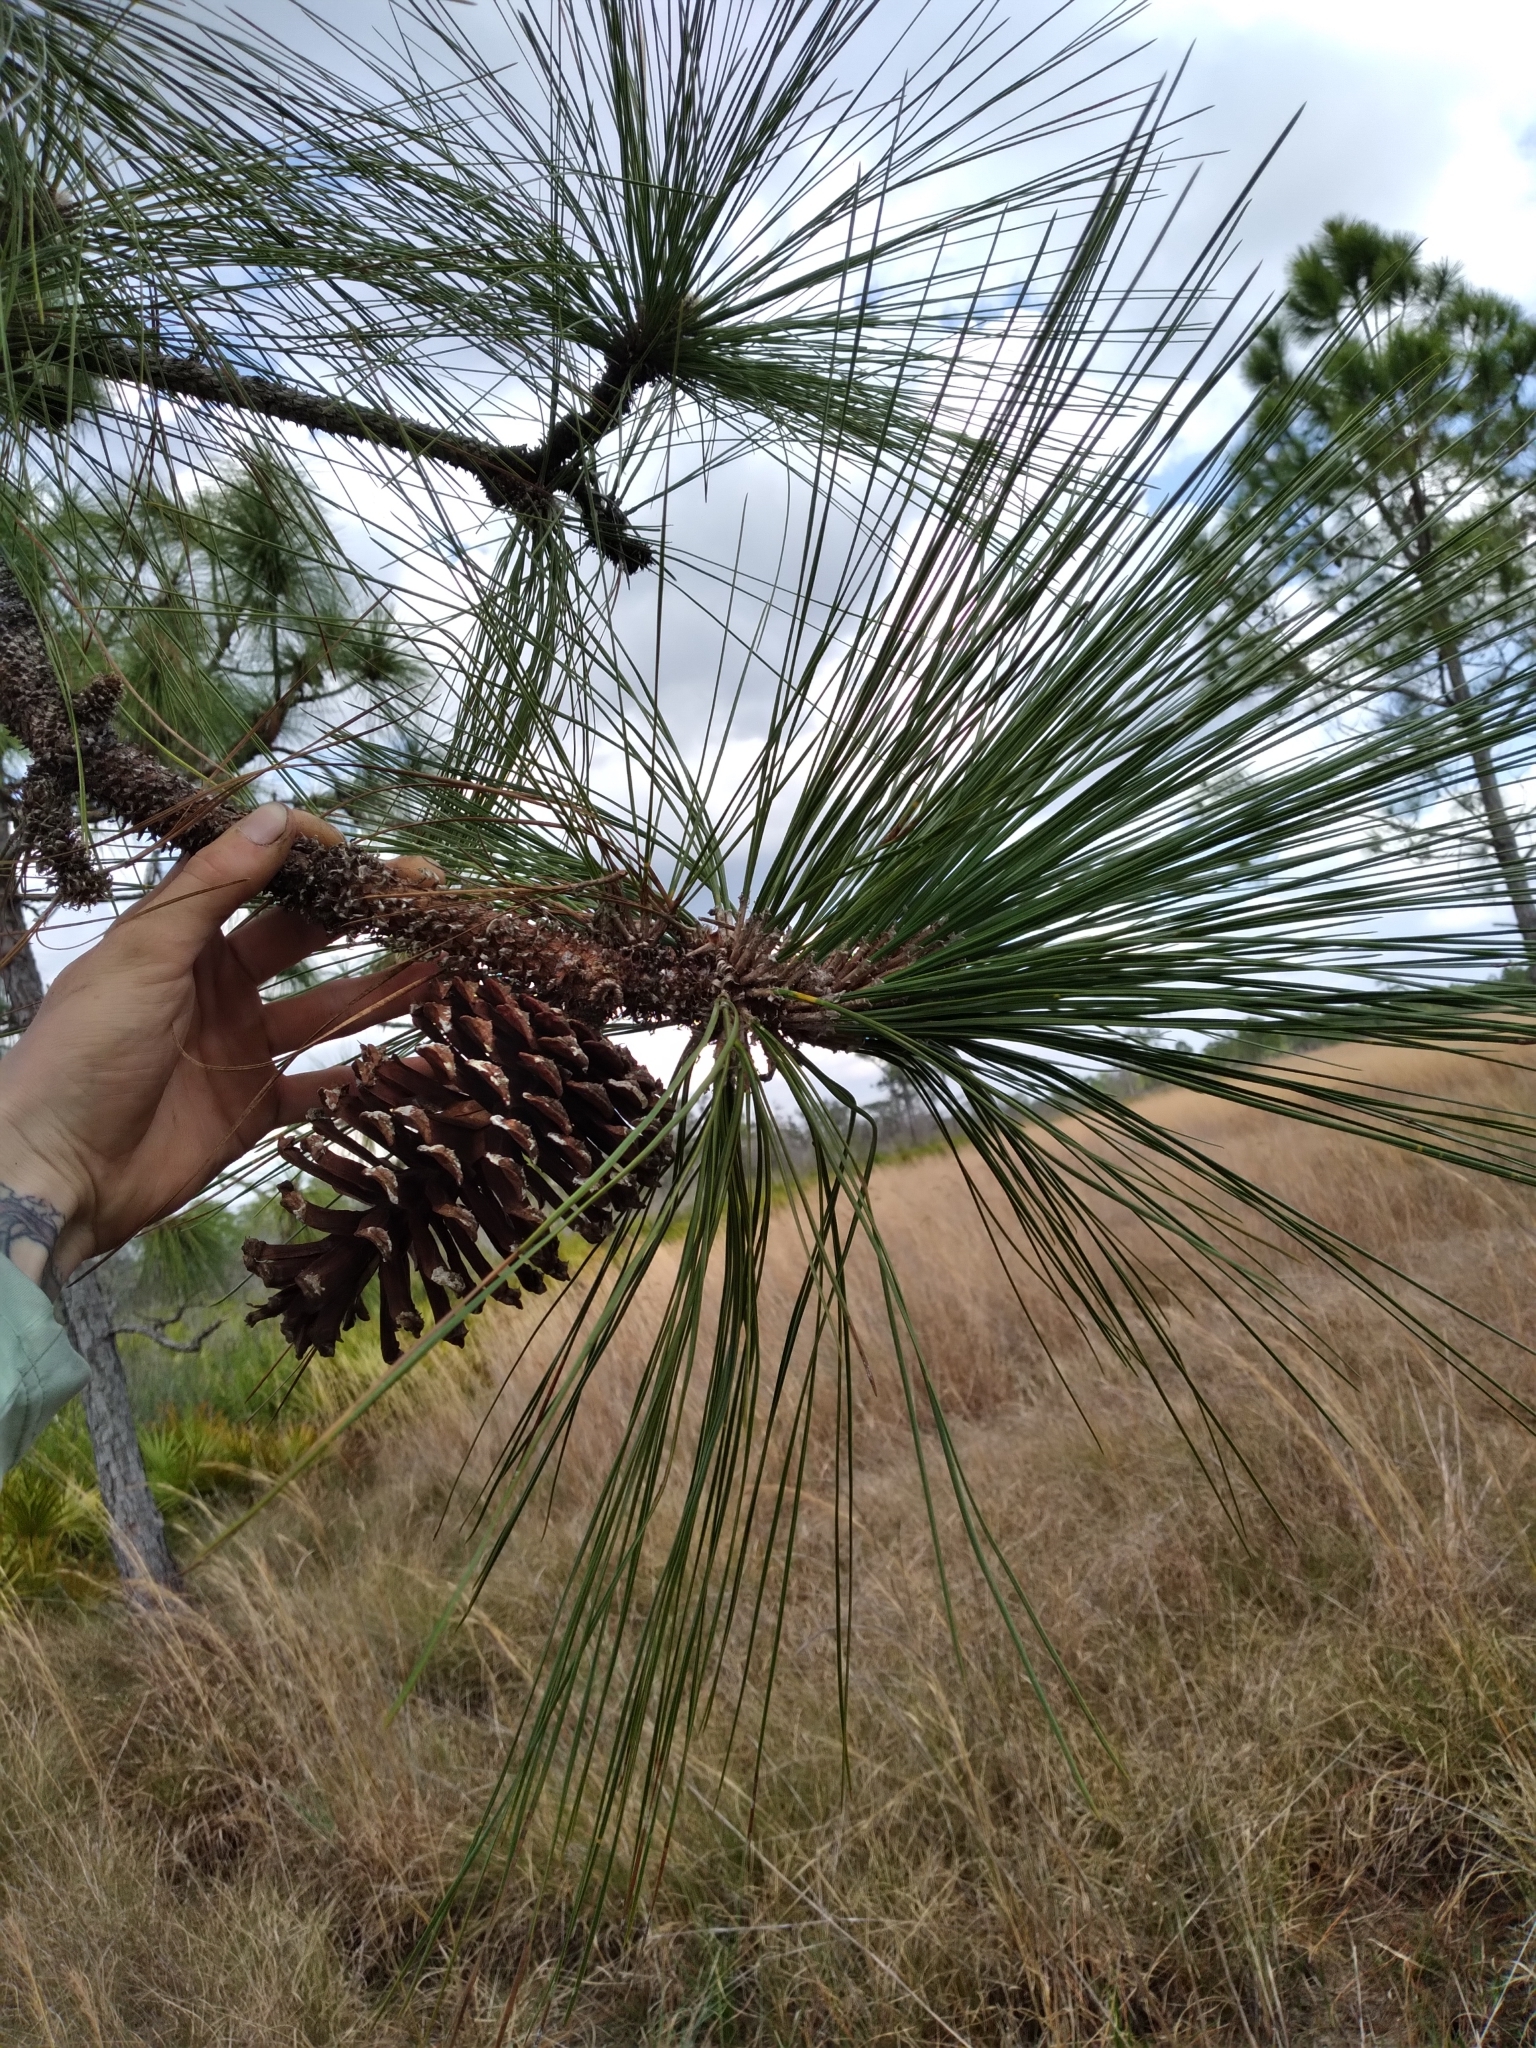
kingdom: Plantae
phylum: Tracheophyta
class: Pinopsida
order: Pinales
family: Pinaceae
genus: Pinus
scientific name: Pinus palustris
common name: Longleaf pine
